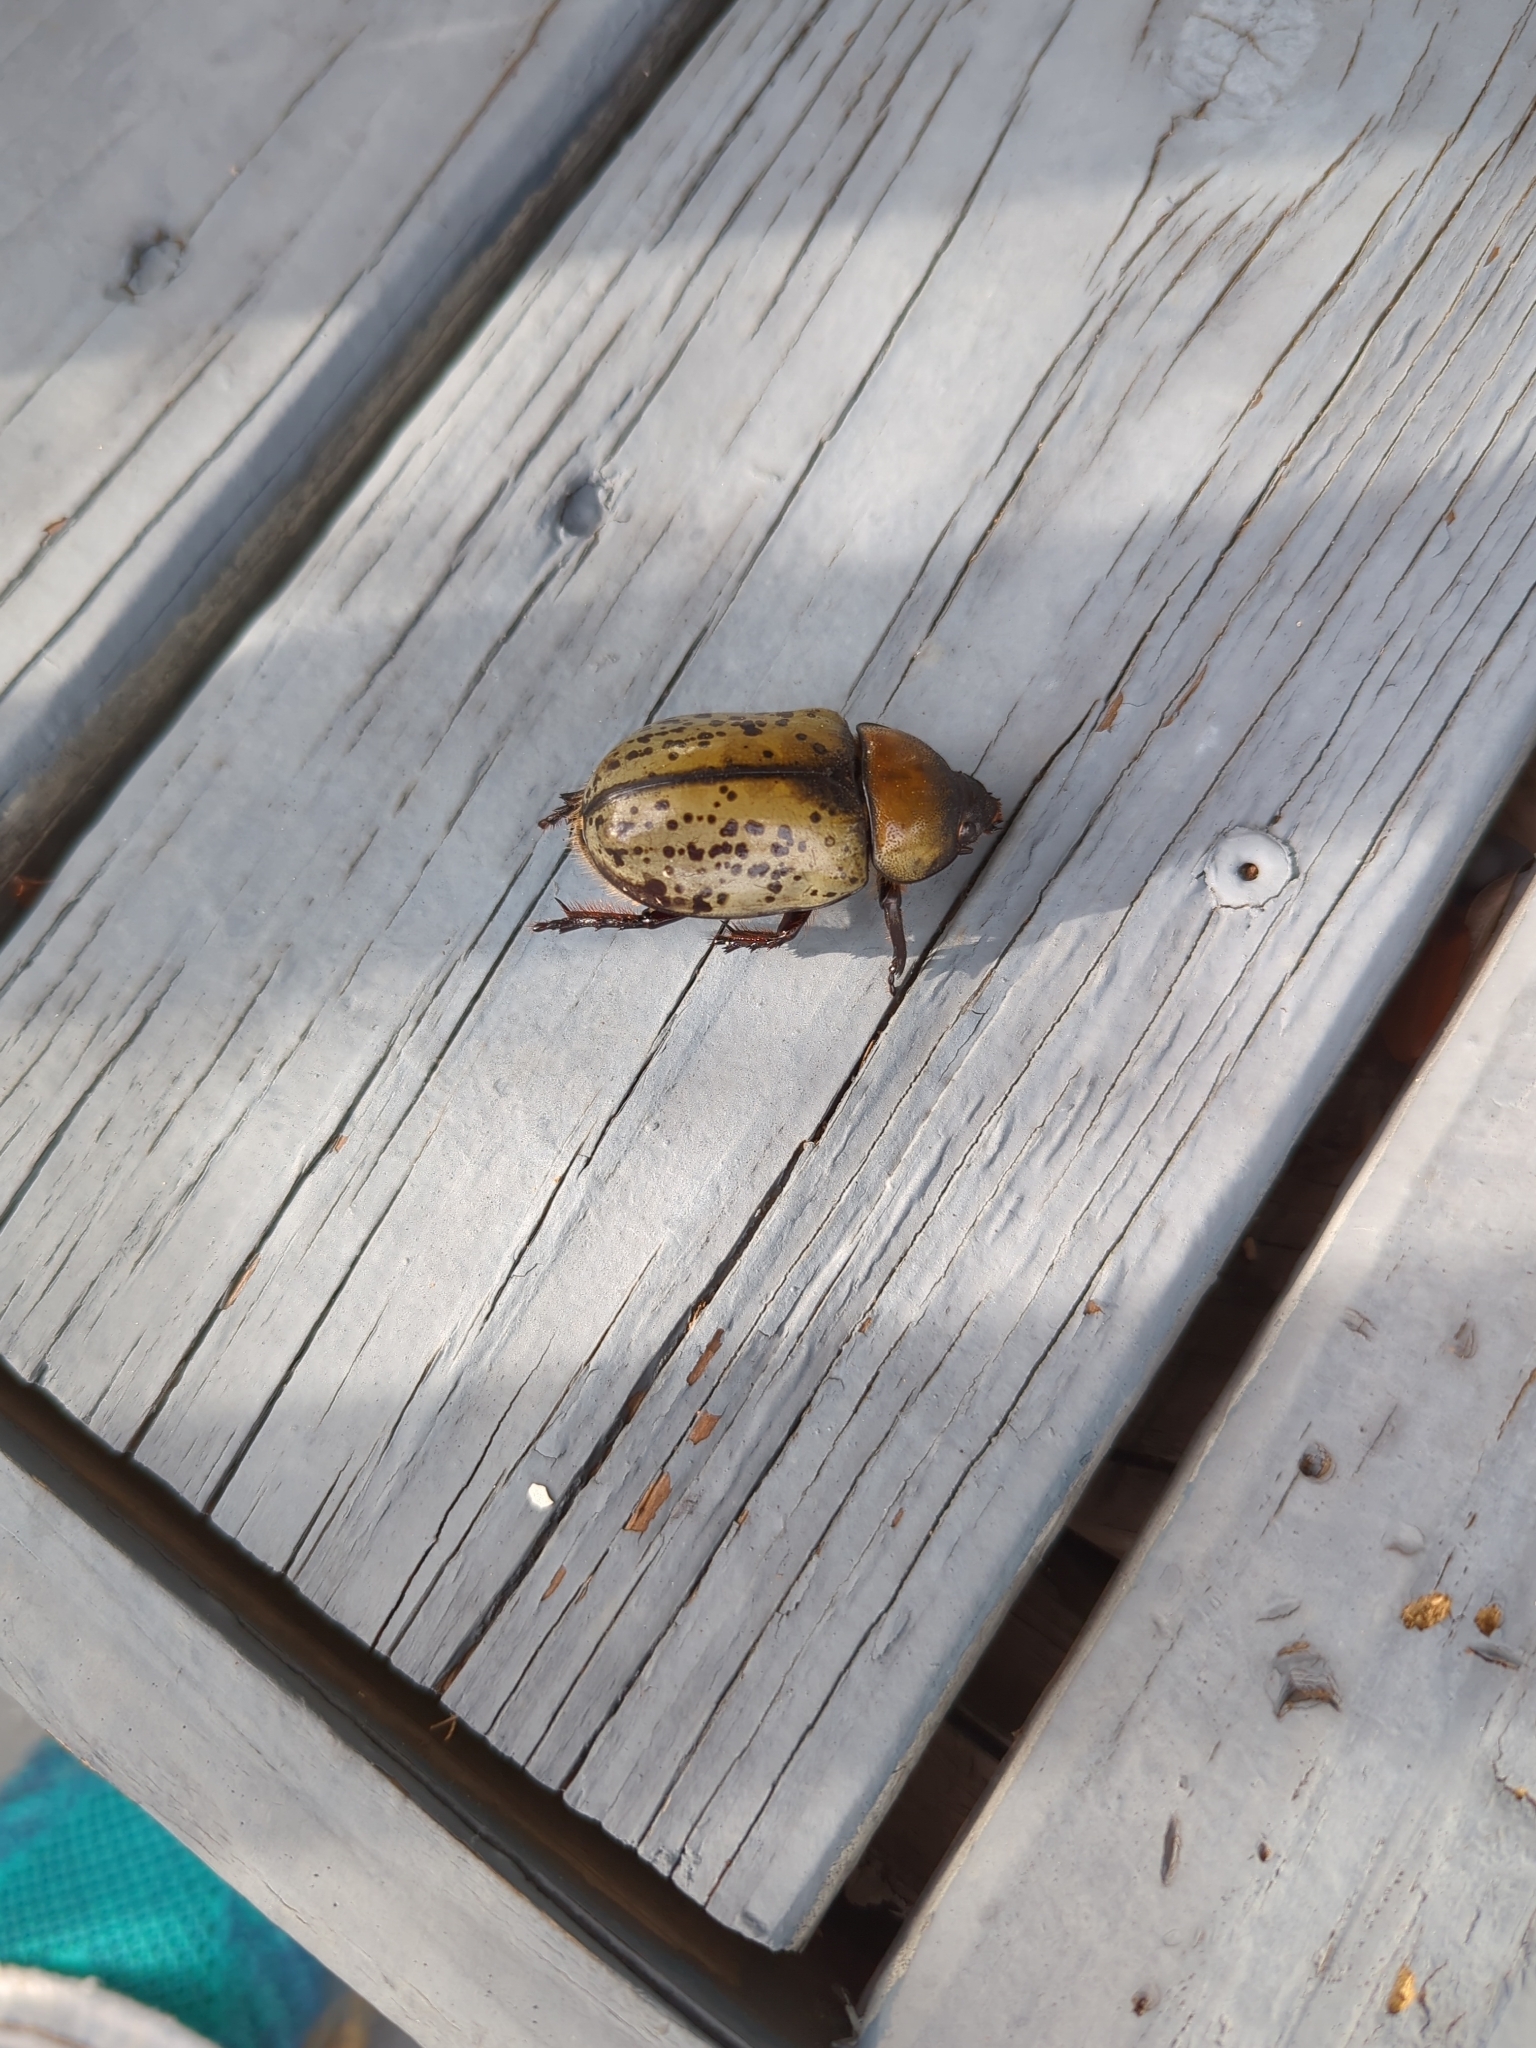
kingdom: Animalia
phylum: Arthropoda
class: Insecta
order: Coleoptera
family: Scarabaeidae
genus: Dynastes
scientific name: Dynastes tityus
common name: Eastern hercules beetle
